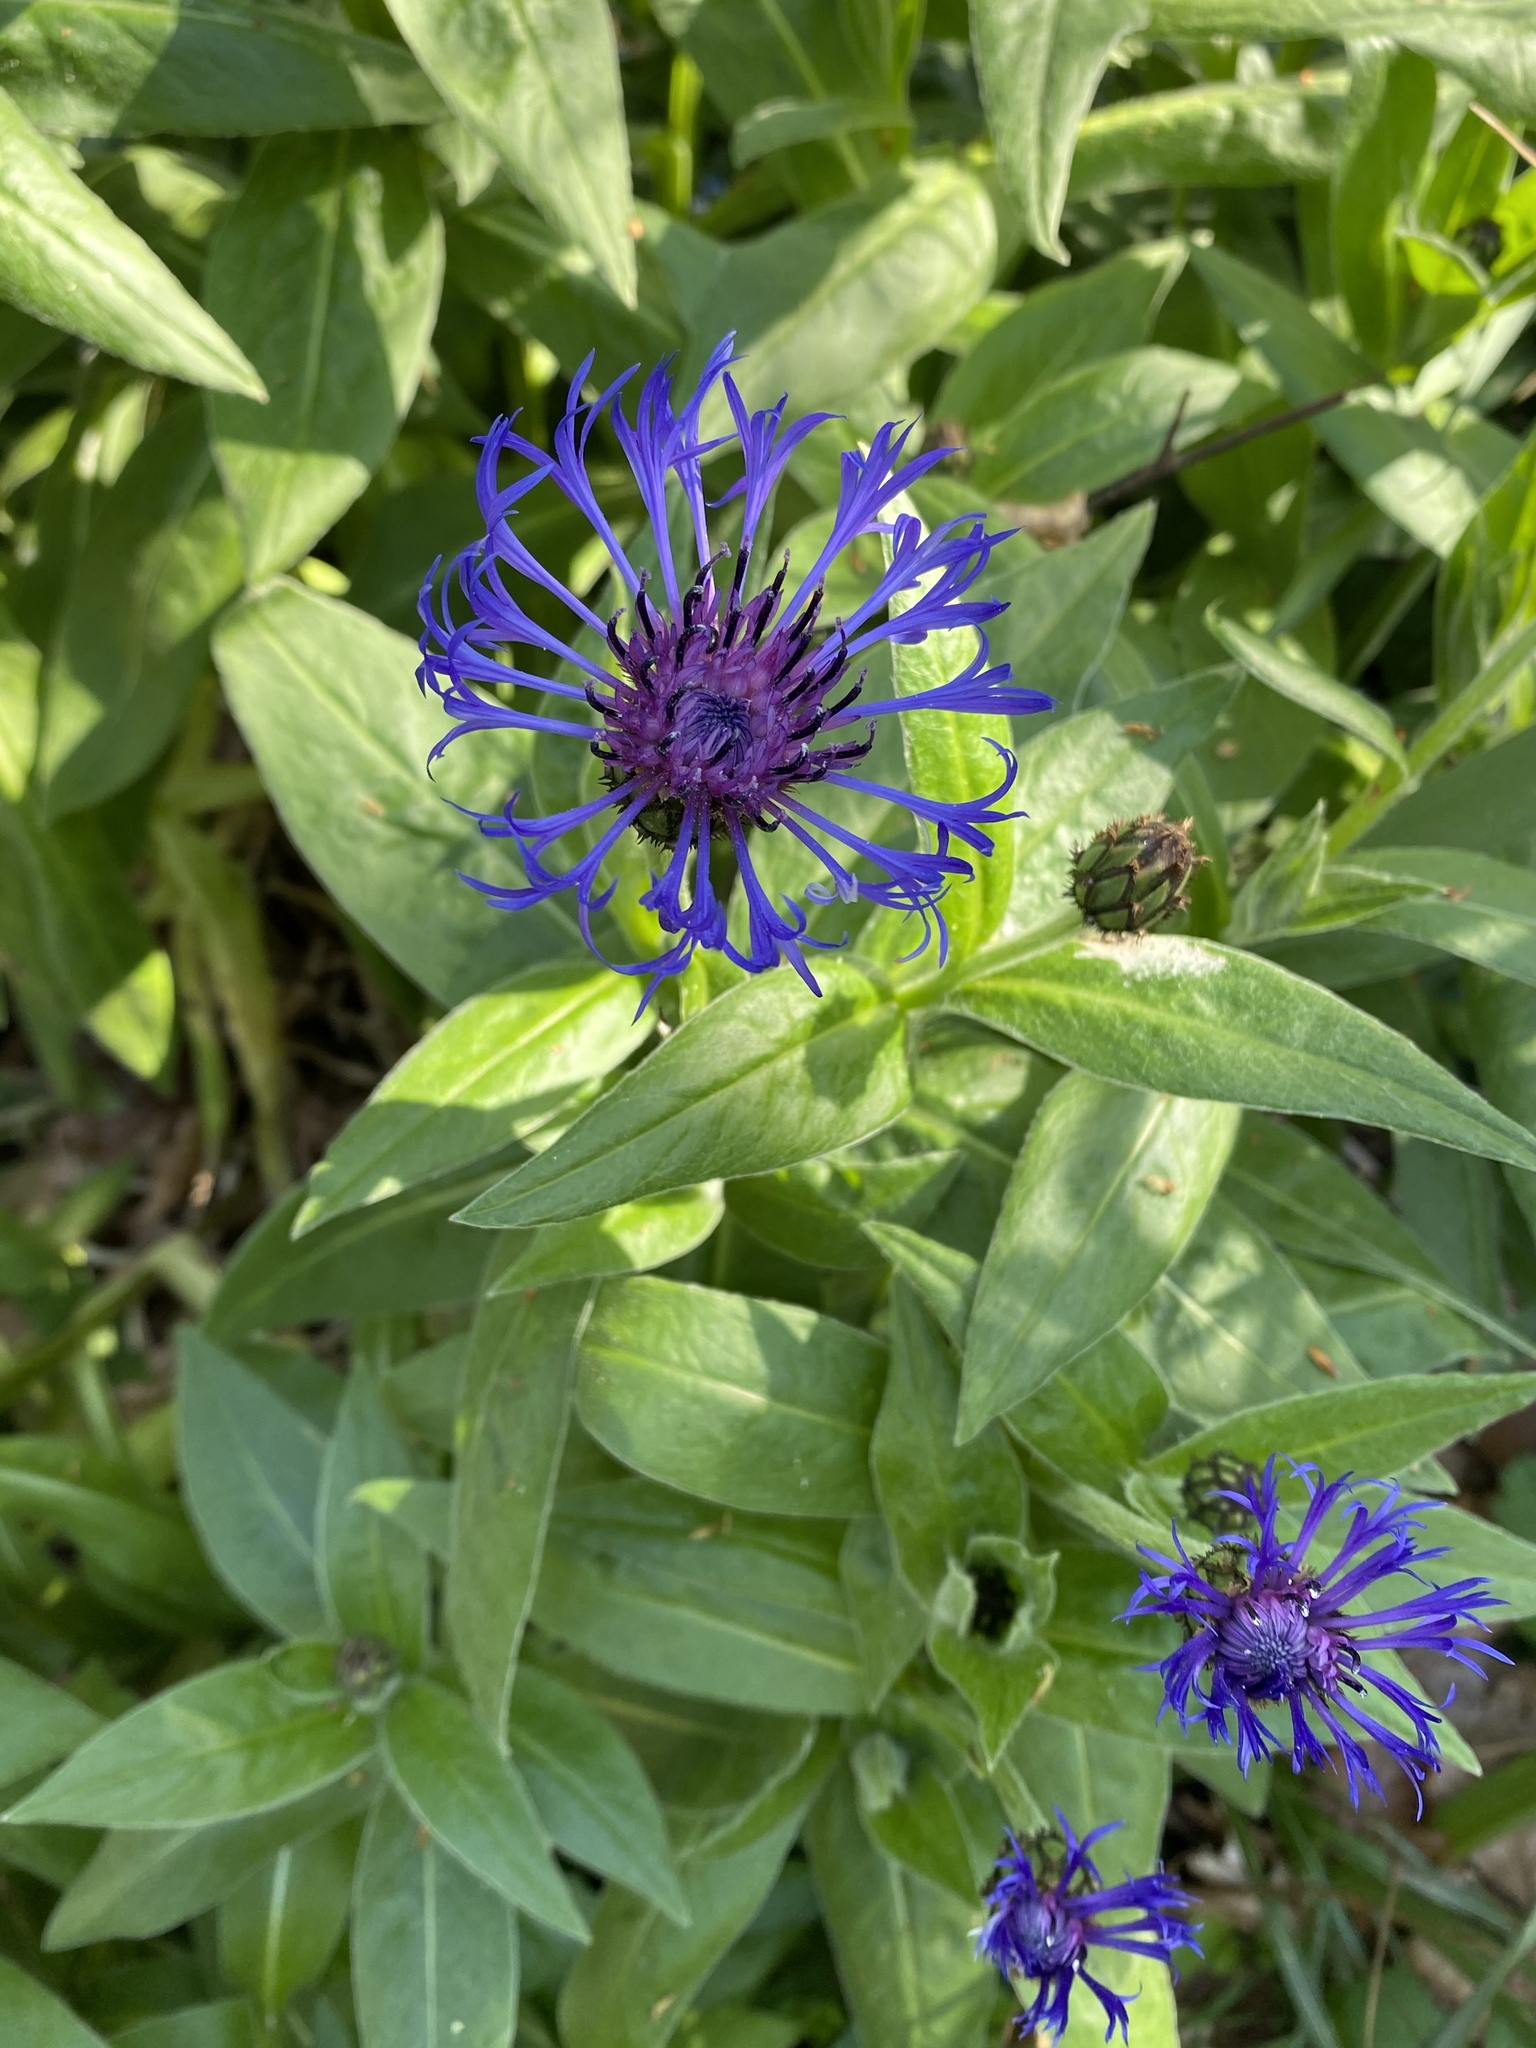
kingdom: Plantae
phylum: Tracheophyta
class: Magnoliopsida
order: Asterales
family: Asteraceae
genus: Centaurea
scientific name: Centaurea montana
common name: Perennial cornflower
